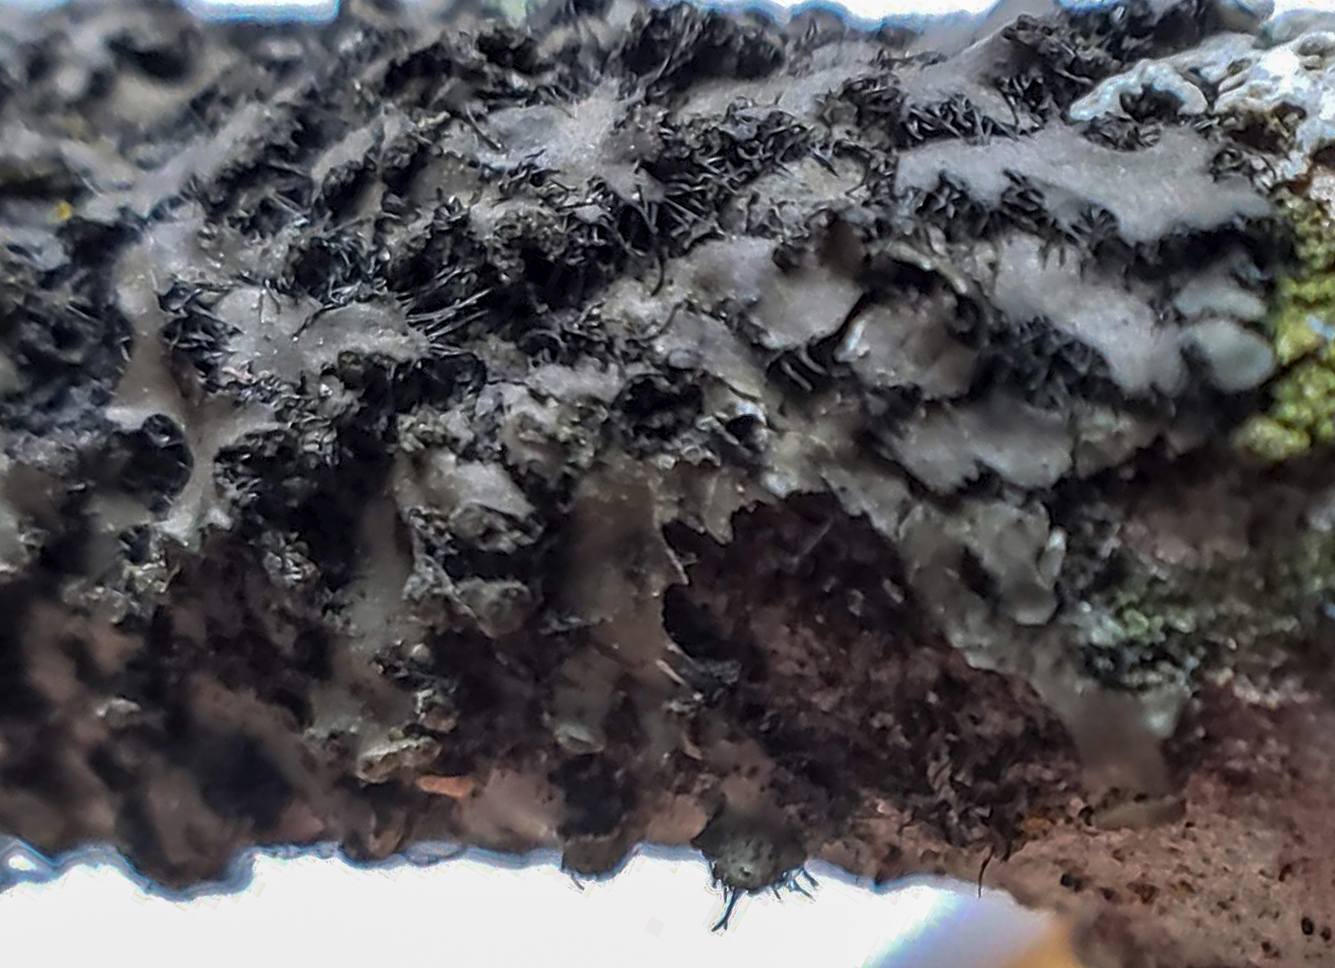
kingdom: Fungi
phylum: Ascomycota
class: Lecanoromycetes
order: Caliciales
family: Physciaceae
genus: Phaeophyscia
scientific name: Phaeophyscia hispidula
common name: Whiskered shadow lichen
